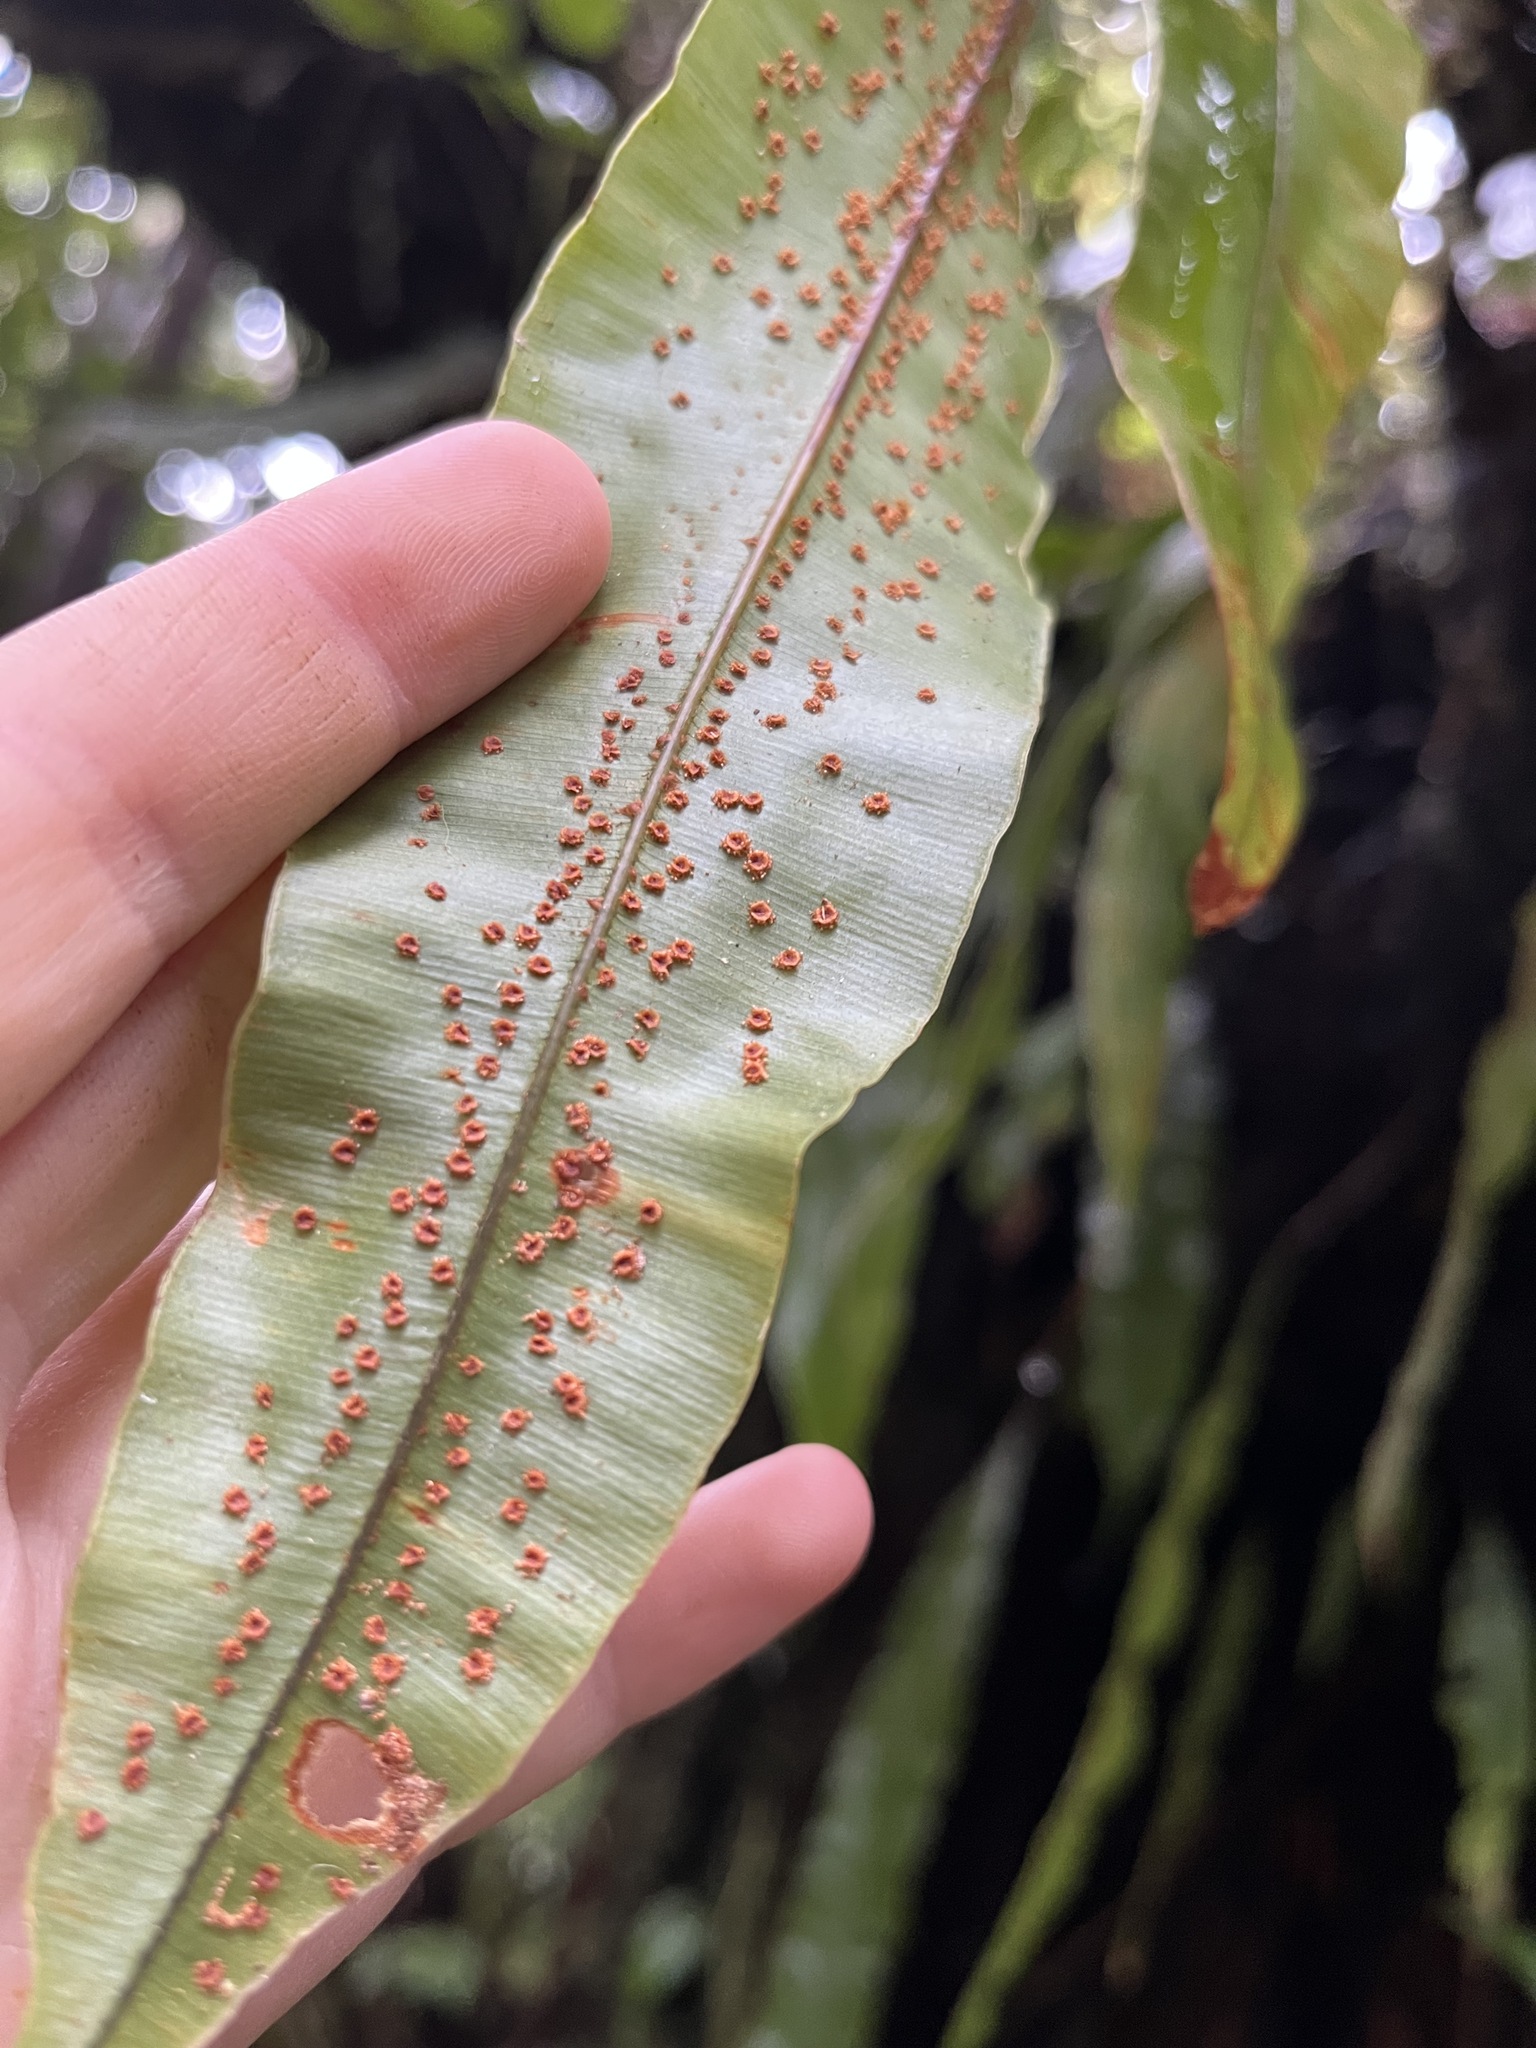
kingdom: Plantae
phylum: Tracheophyta
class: Polypodiopsida
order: Polypodiales
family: Oleandraceae
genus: Oleandra
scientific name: Oleandra articulata
